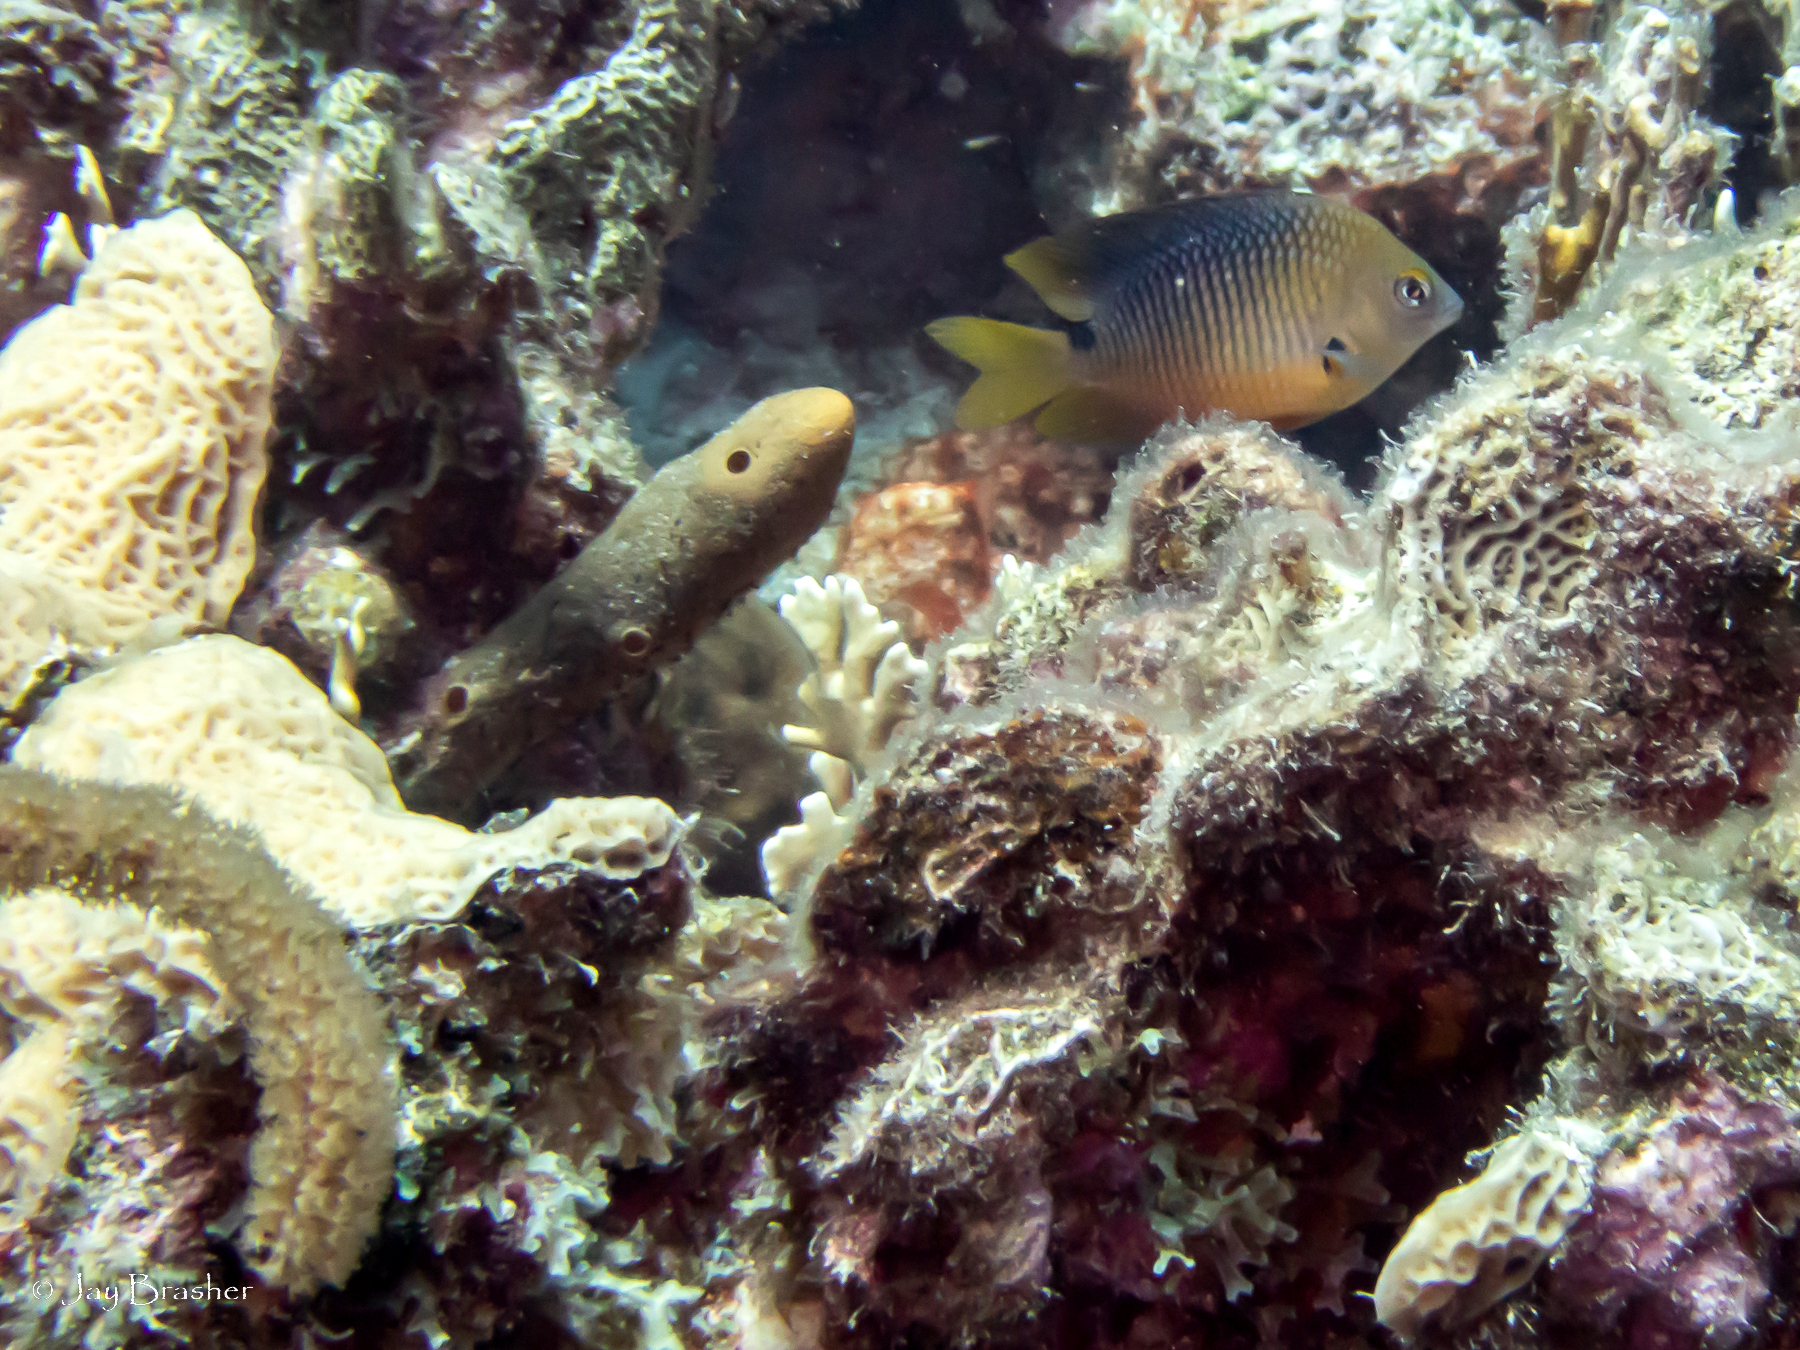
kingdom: Animalia
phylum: Porifera
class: Demospongiae
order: Agelasida
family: Agelasidae
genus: Agelas
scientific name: Agelas conifera
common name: Brown tube sponge
